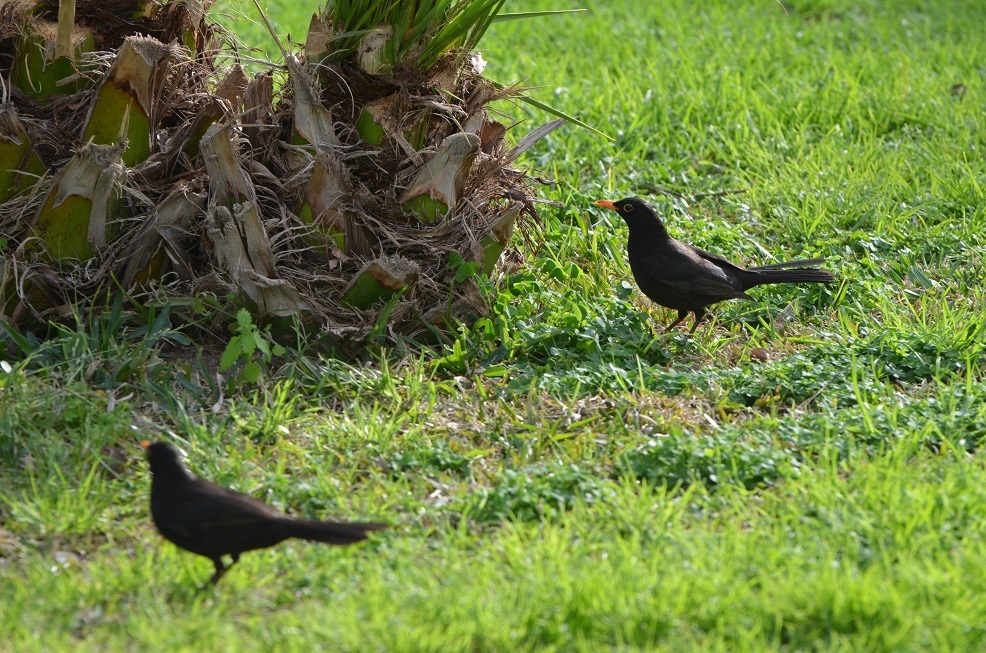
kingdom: Animalia
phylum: Chordata
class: Aves
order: Passeriformes
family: Turdidae
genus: Turdus
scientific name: Turdus merula
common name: Common blackbird
